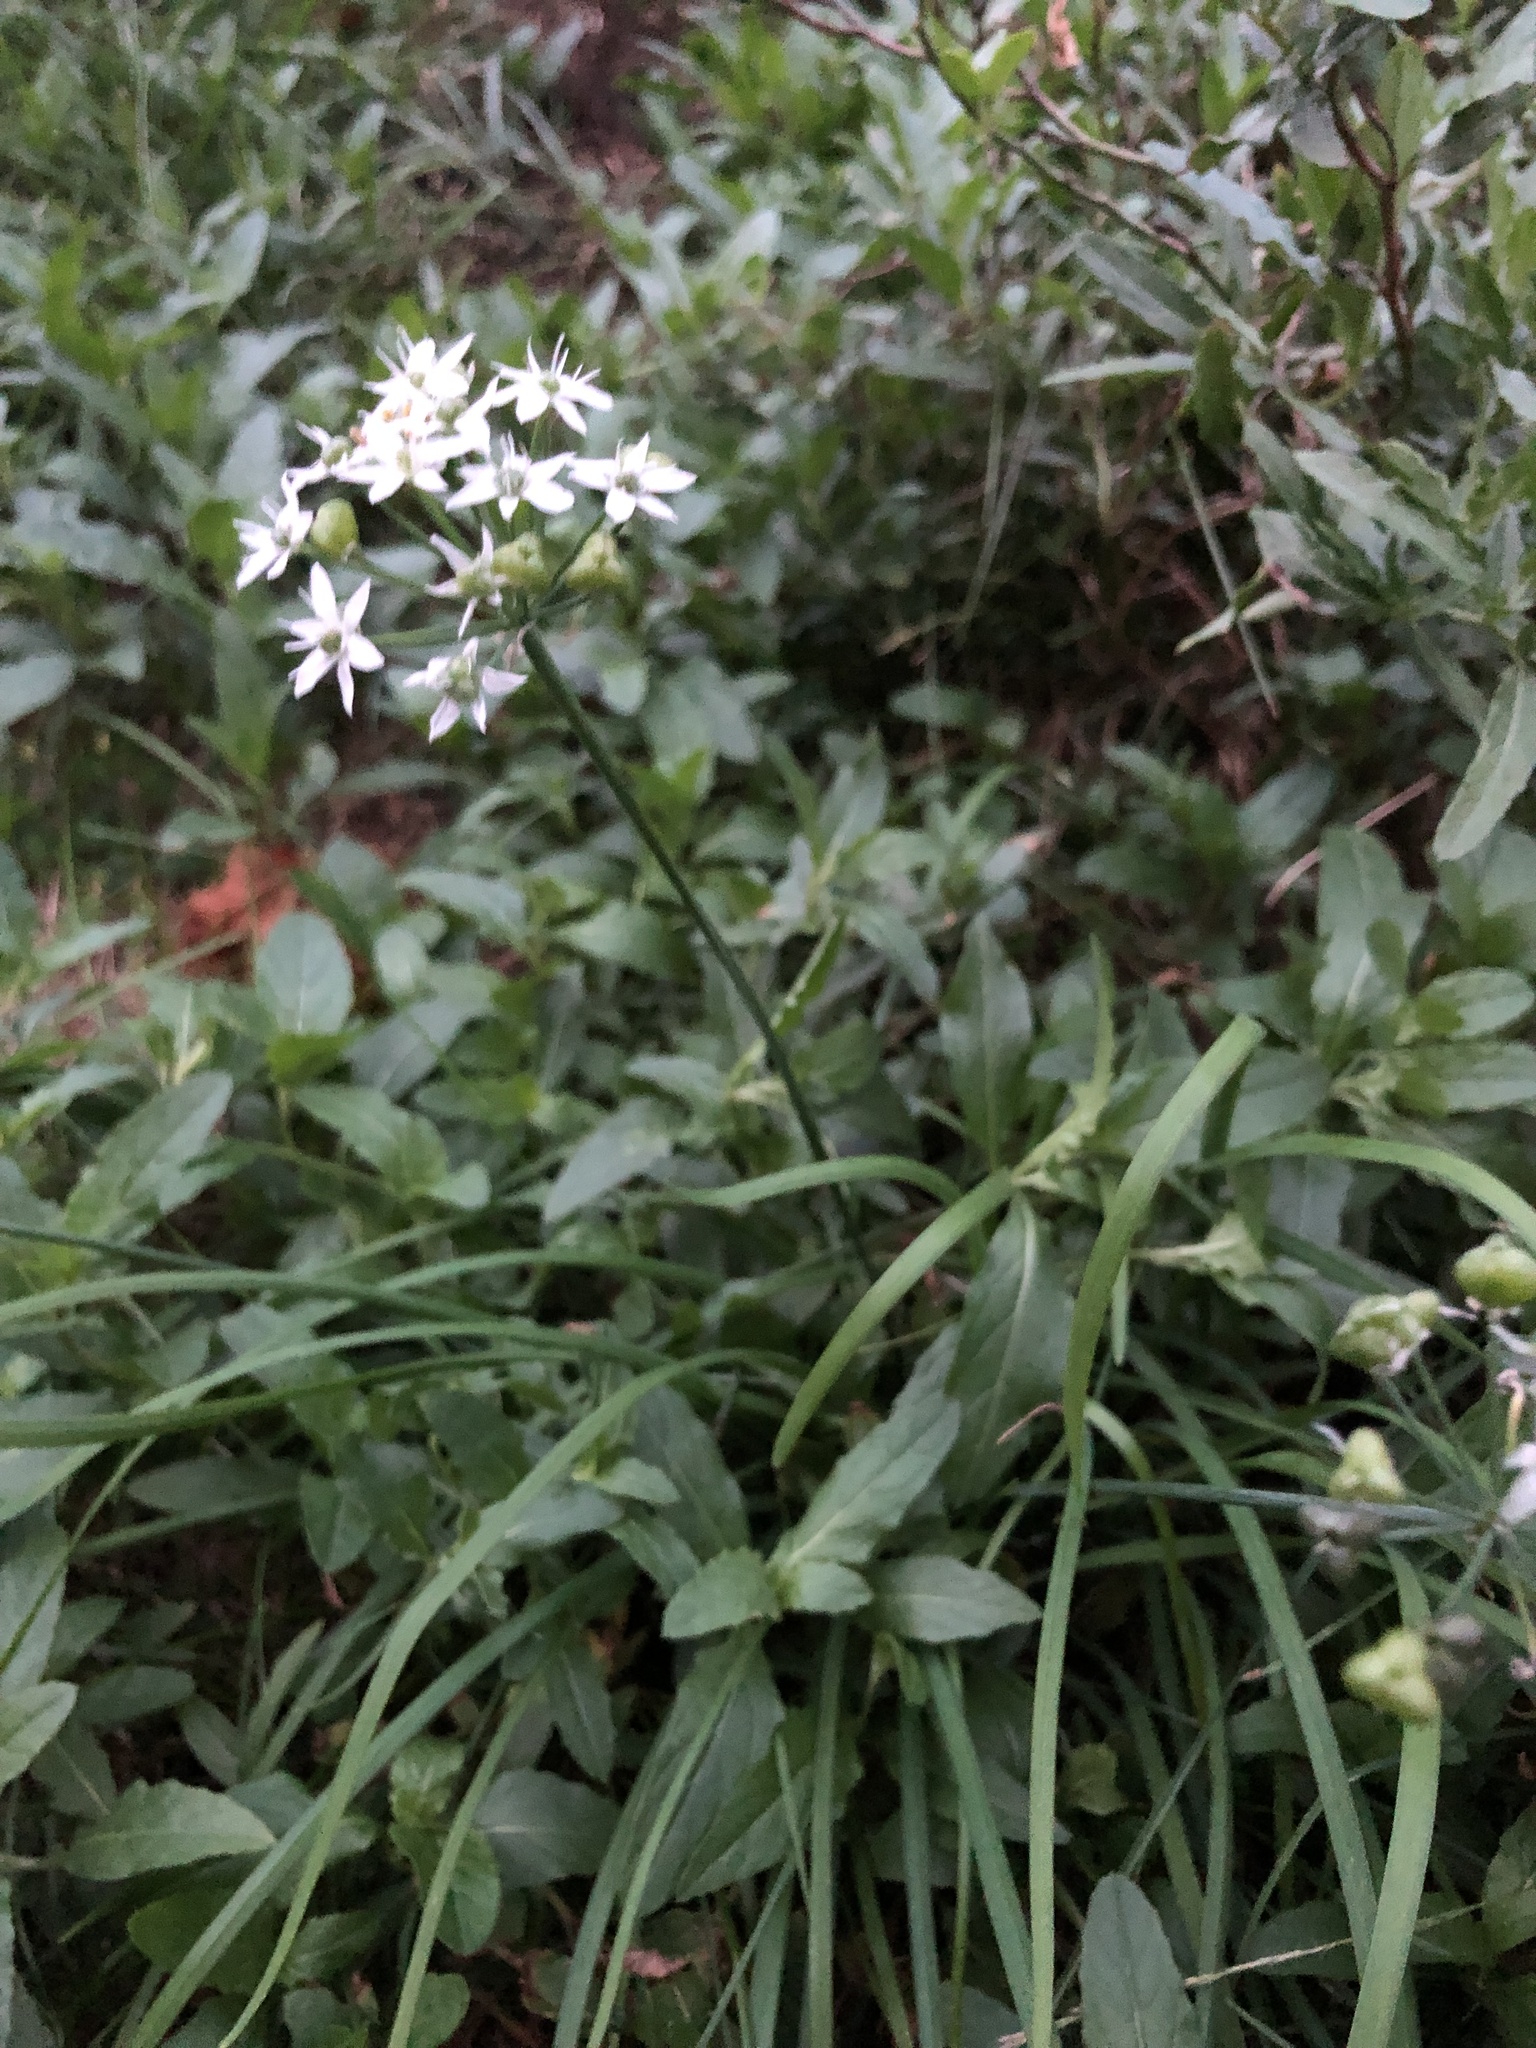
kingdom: Plantae
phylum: Tracheophyta
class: Liliopsida
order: Asparagales
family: Amaryllidaceae
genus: Allium
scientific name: Allium tuberosum
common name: Chinese chives
